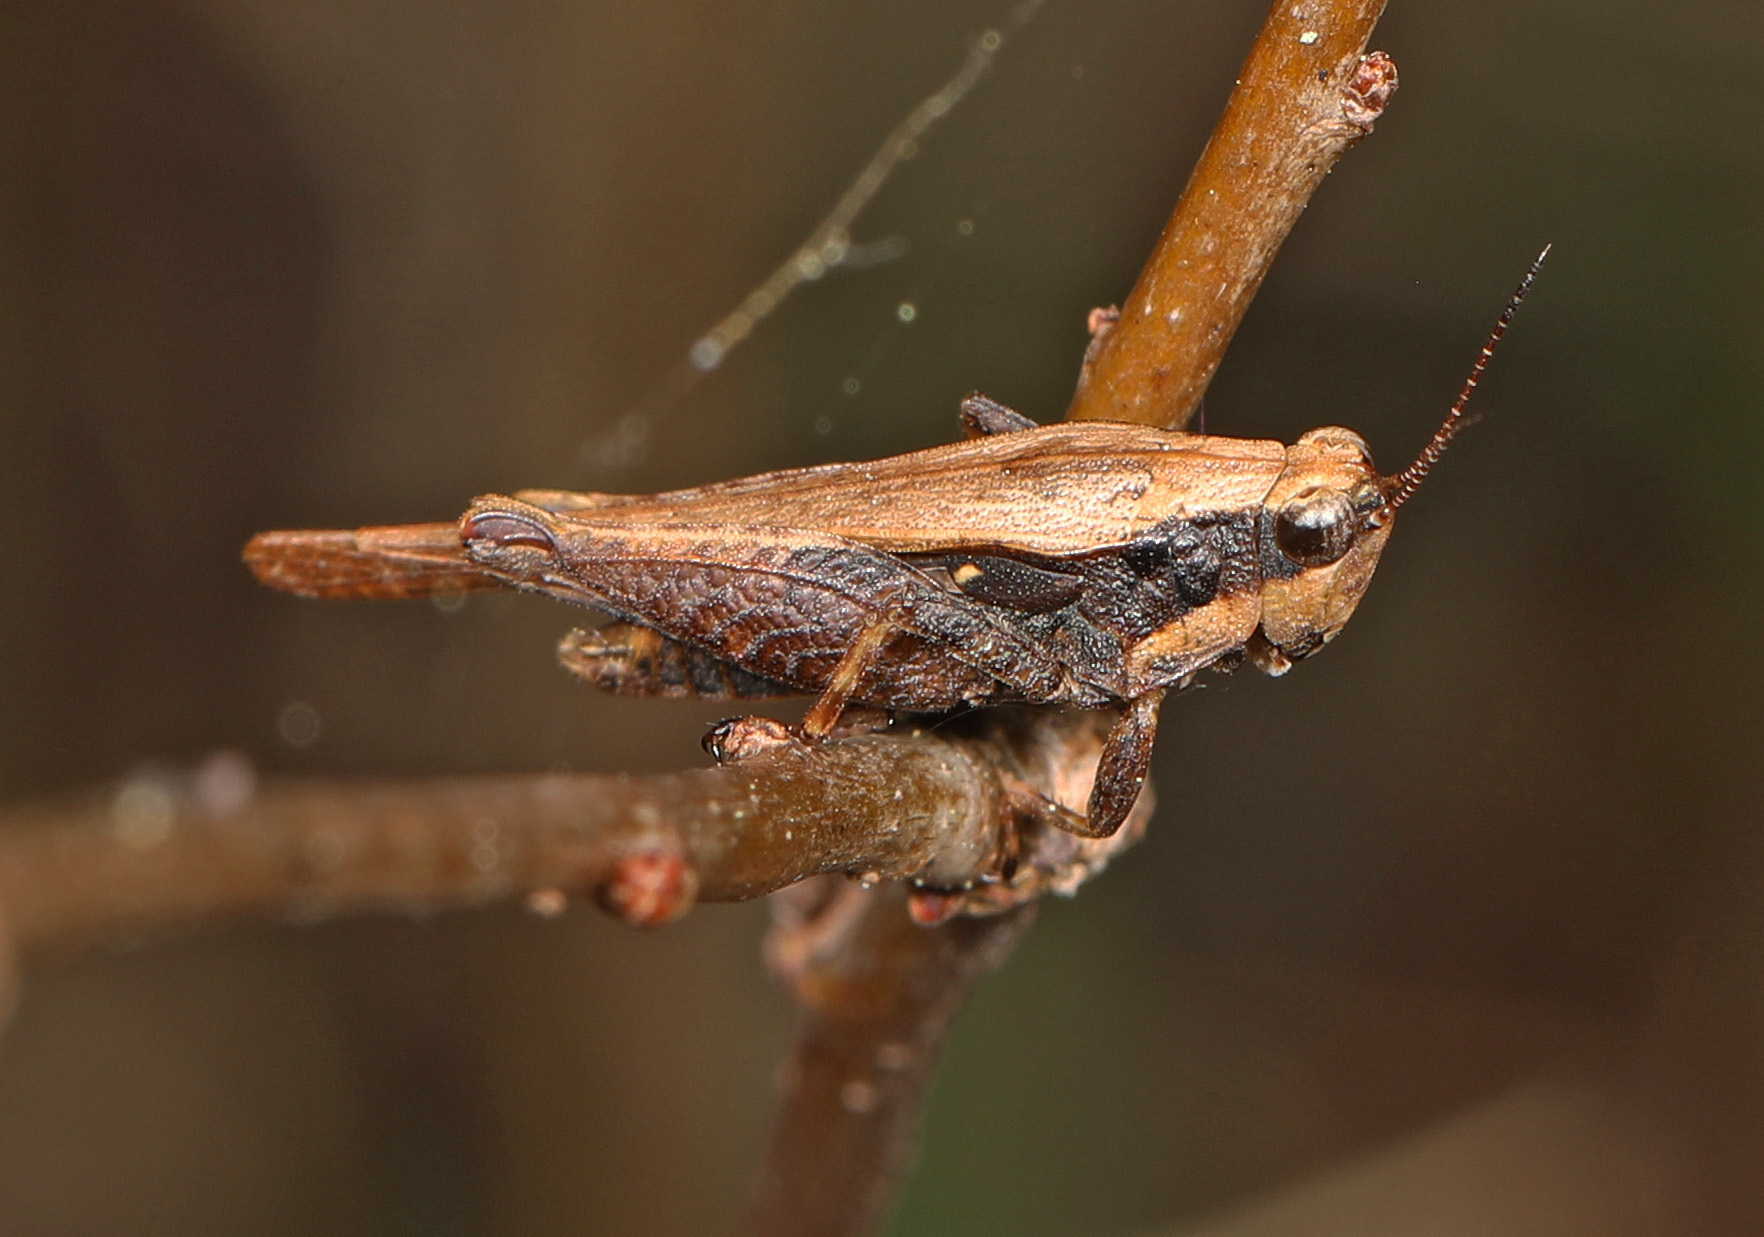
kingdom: Animalia
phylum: Arthropoda
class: Insecta
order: Orthoptera
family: Tetrigidae
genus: Tettigidea
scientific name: Tettigidea laterale
